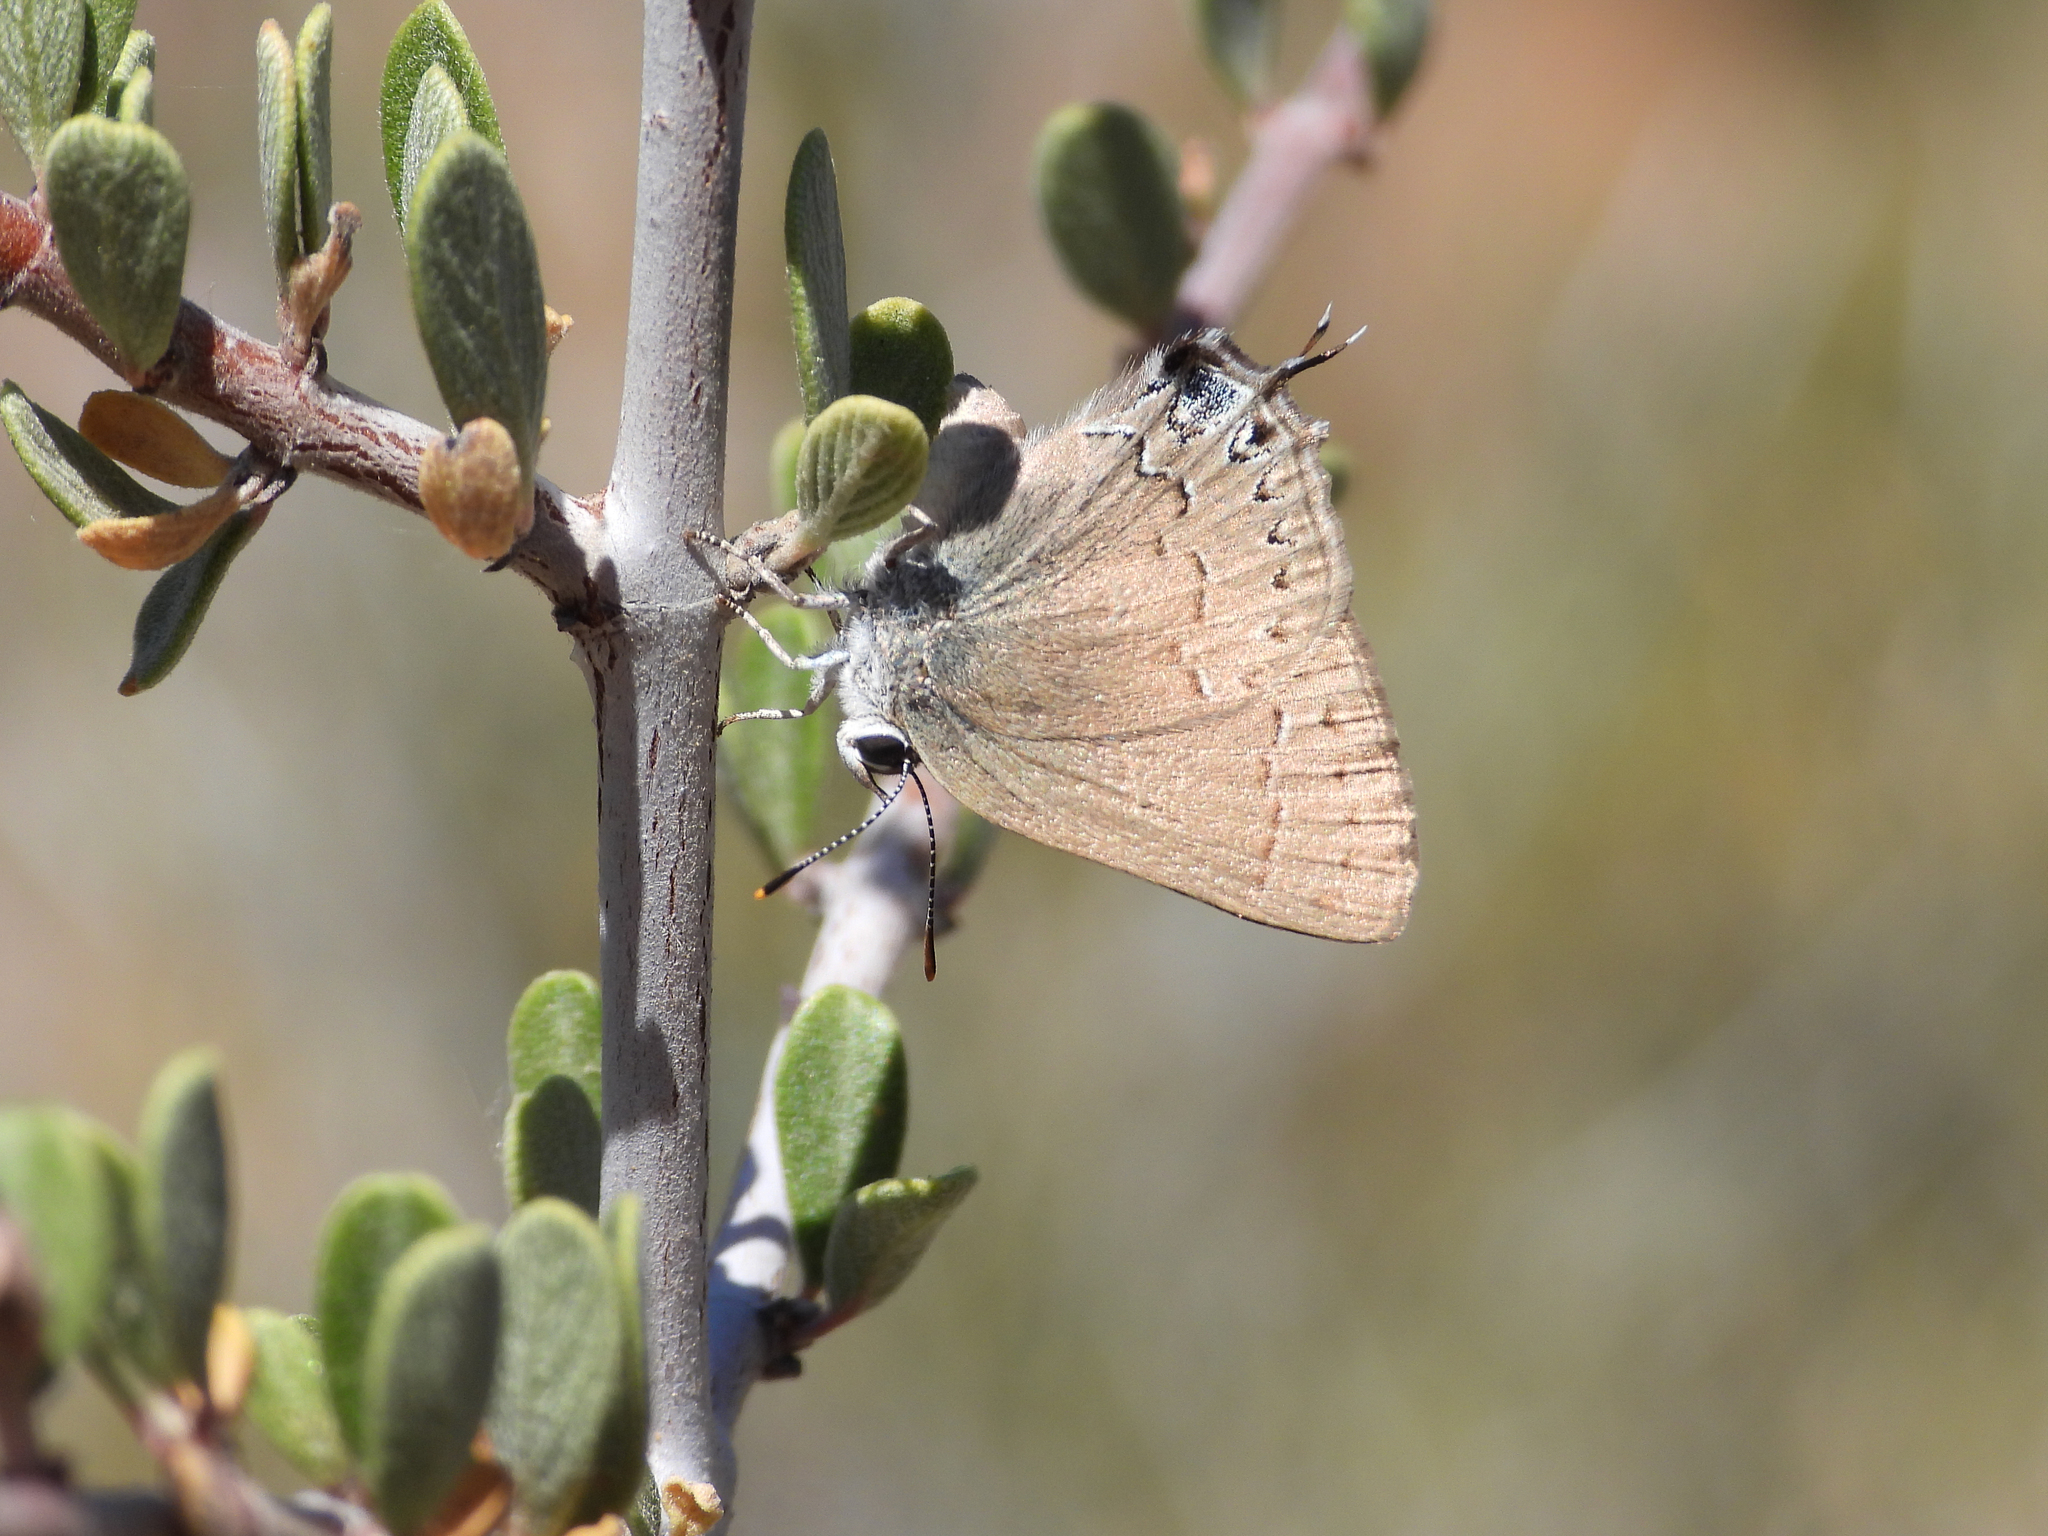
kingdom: Animalia
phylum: Arthropoda
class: Insecta
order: Lepidoptera
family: Lycaenidae
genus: Strymon
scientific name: Strymon saepium
